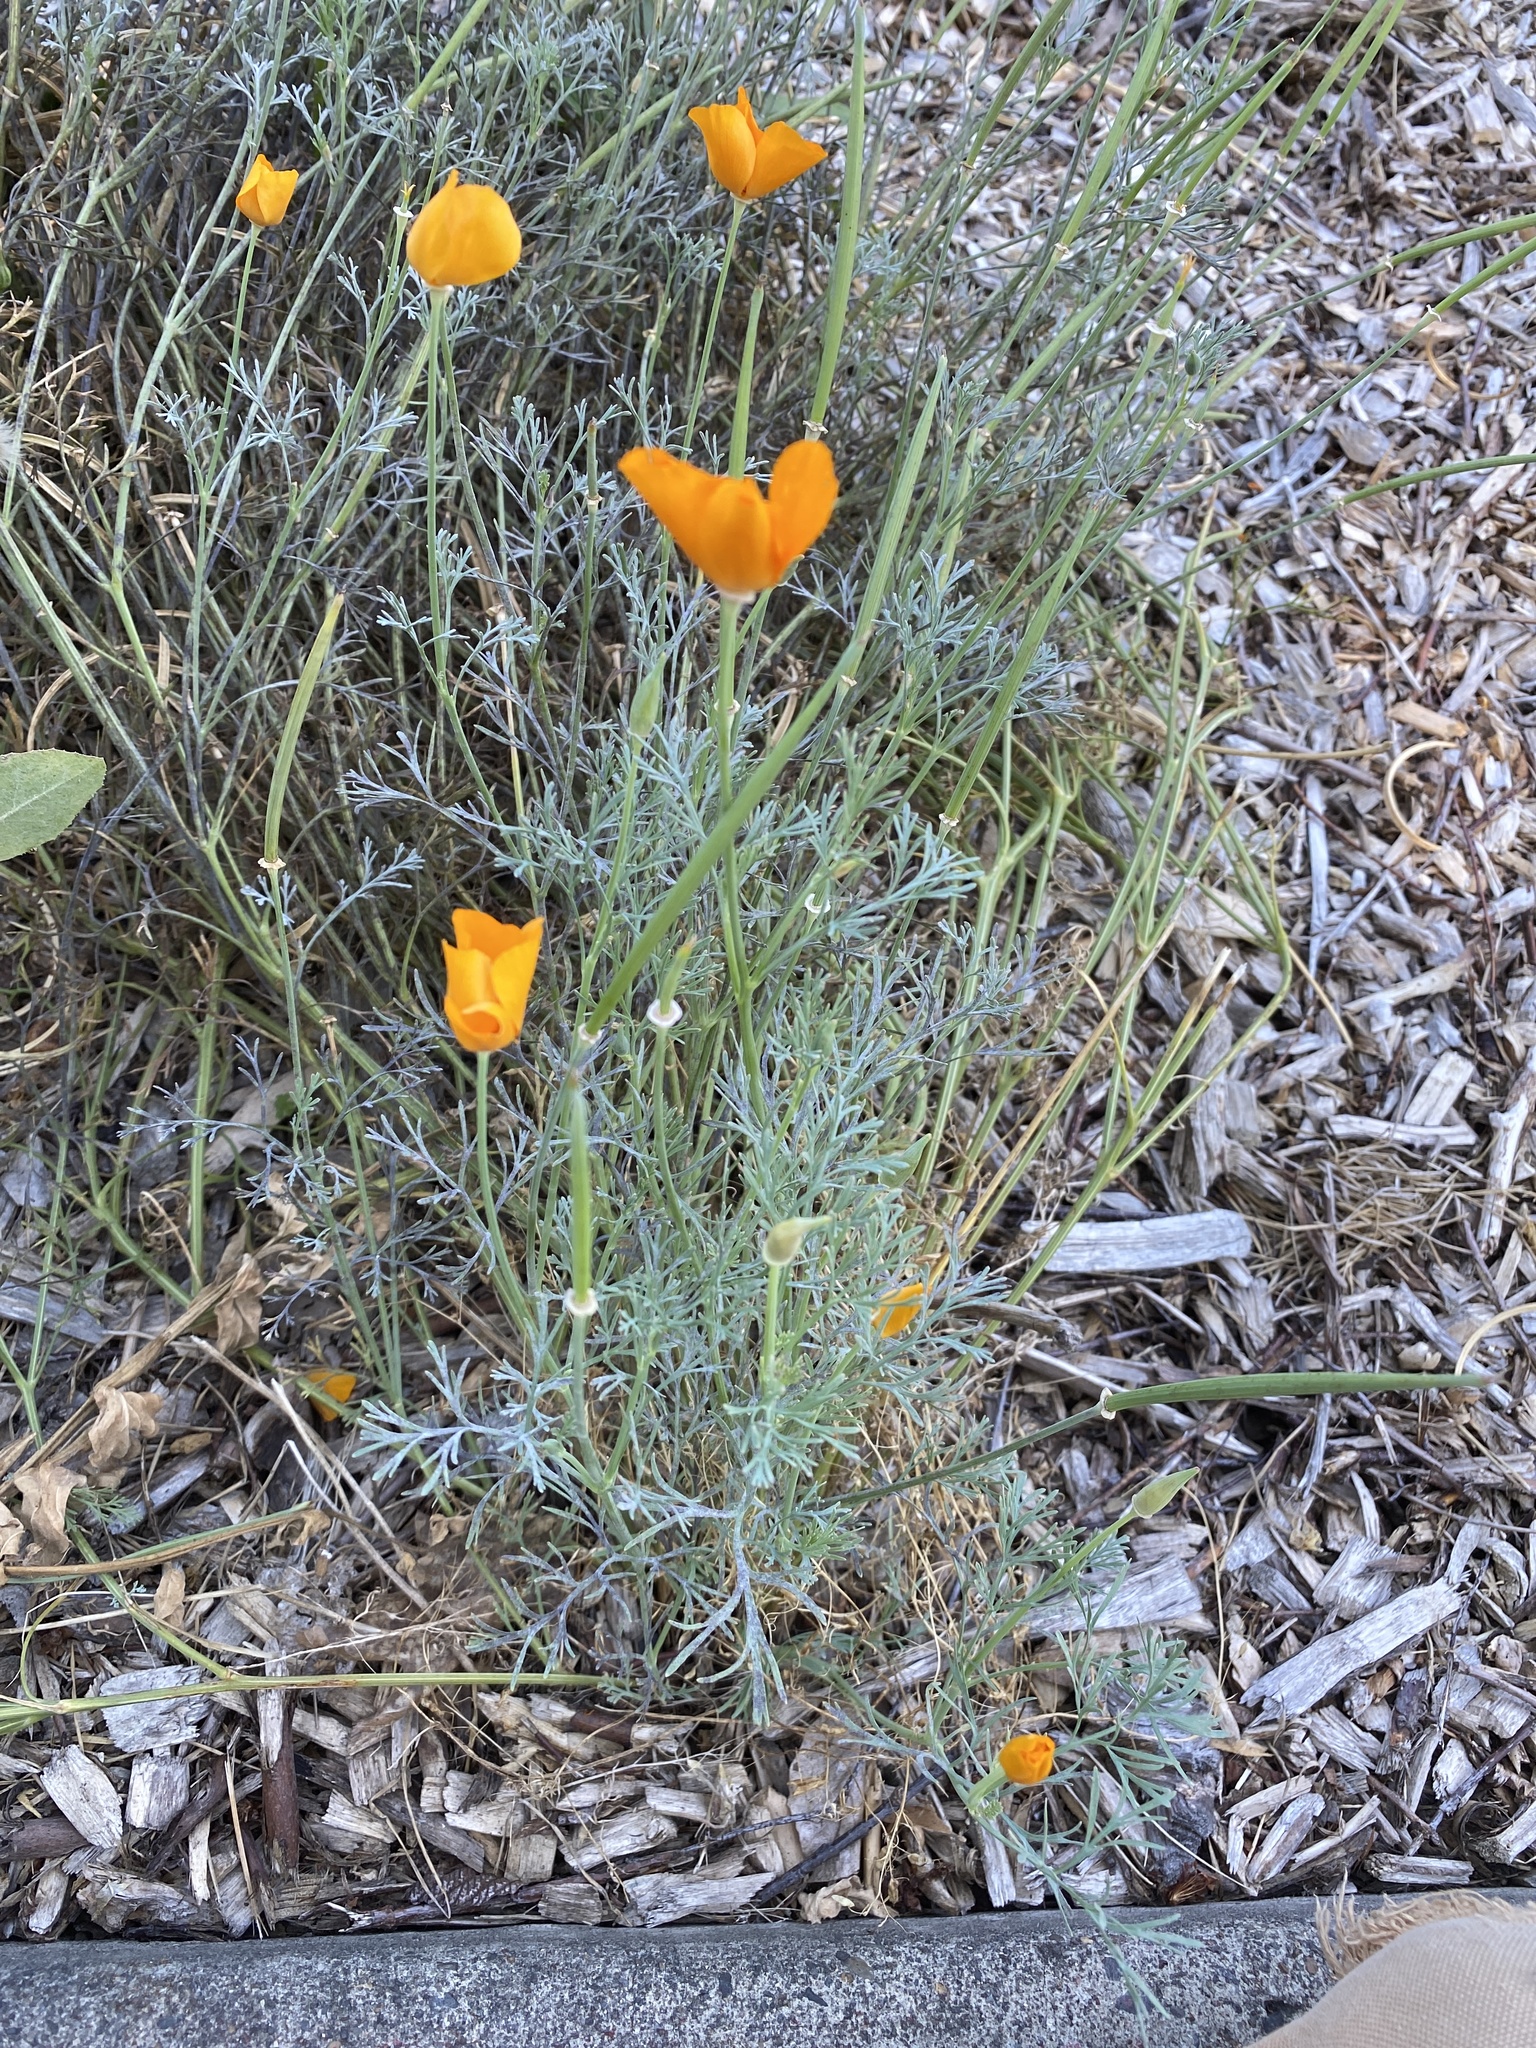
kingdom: Plantae
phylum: Tracheophyta
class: Magnoliopsida
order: Ranunculales
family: Papaveraceae
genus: Eschscholzia
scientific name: Eschscholzia californica
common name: California poppy
